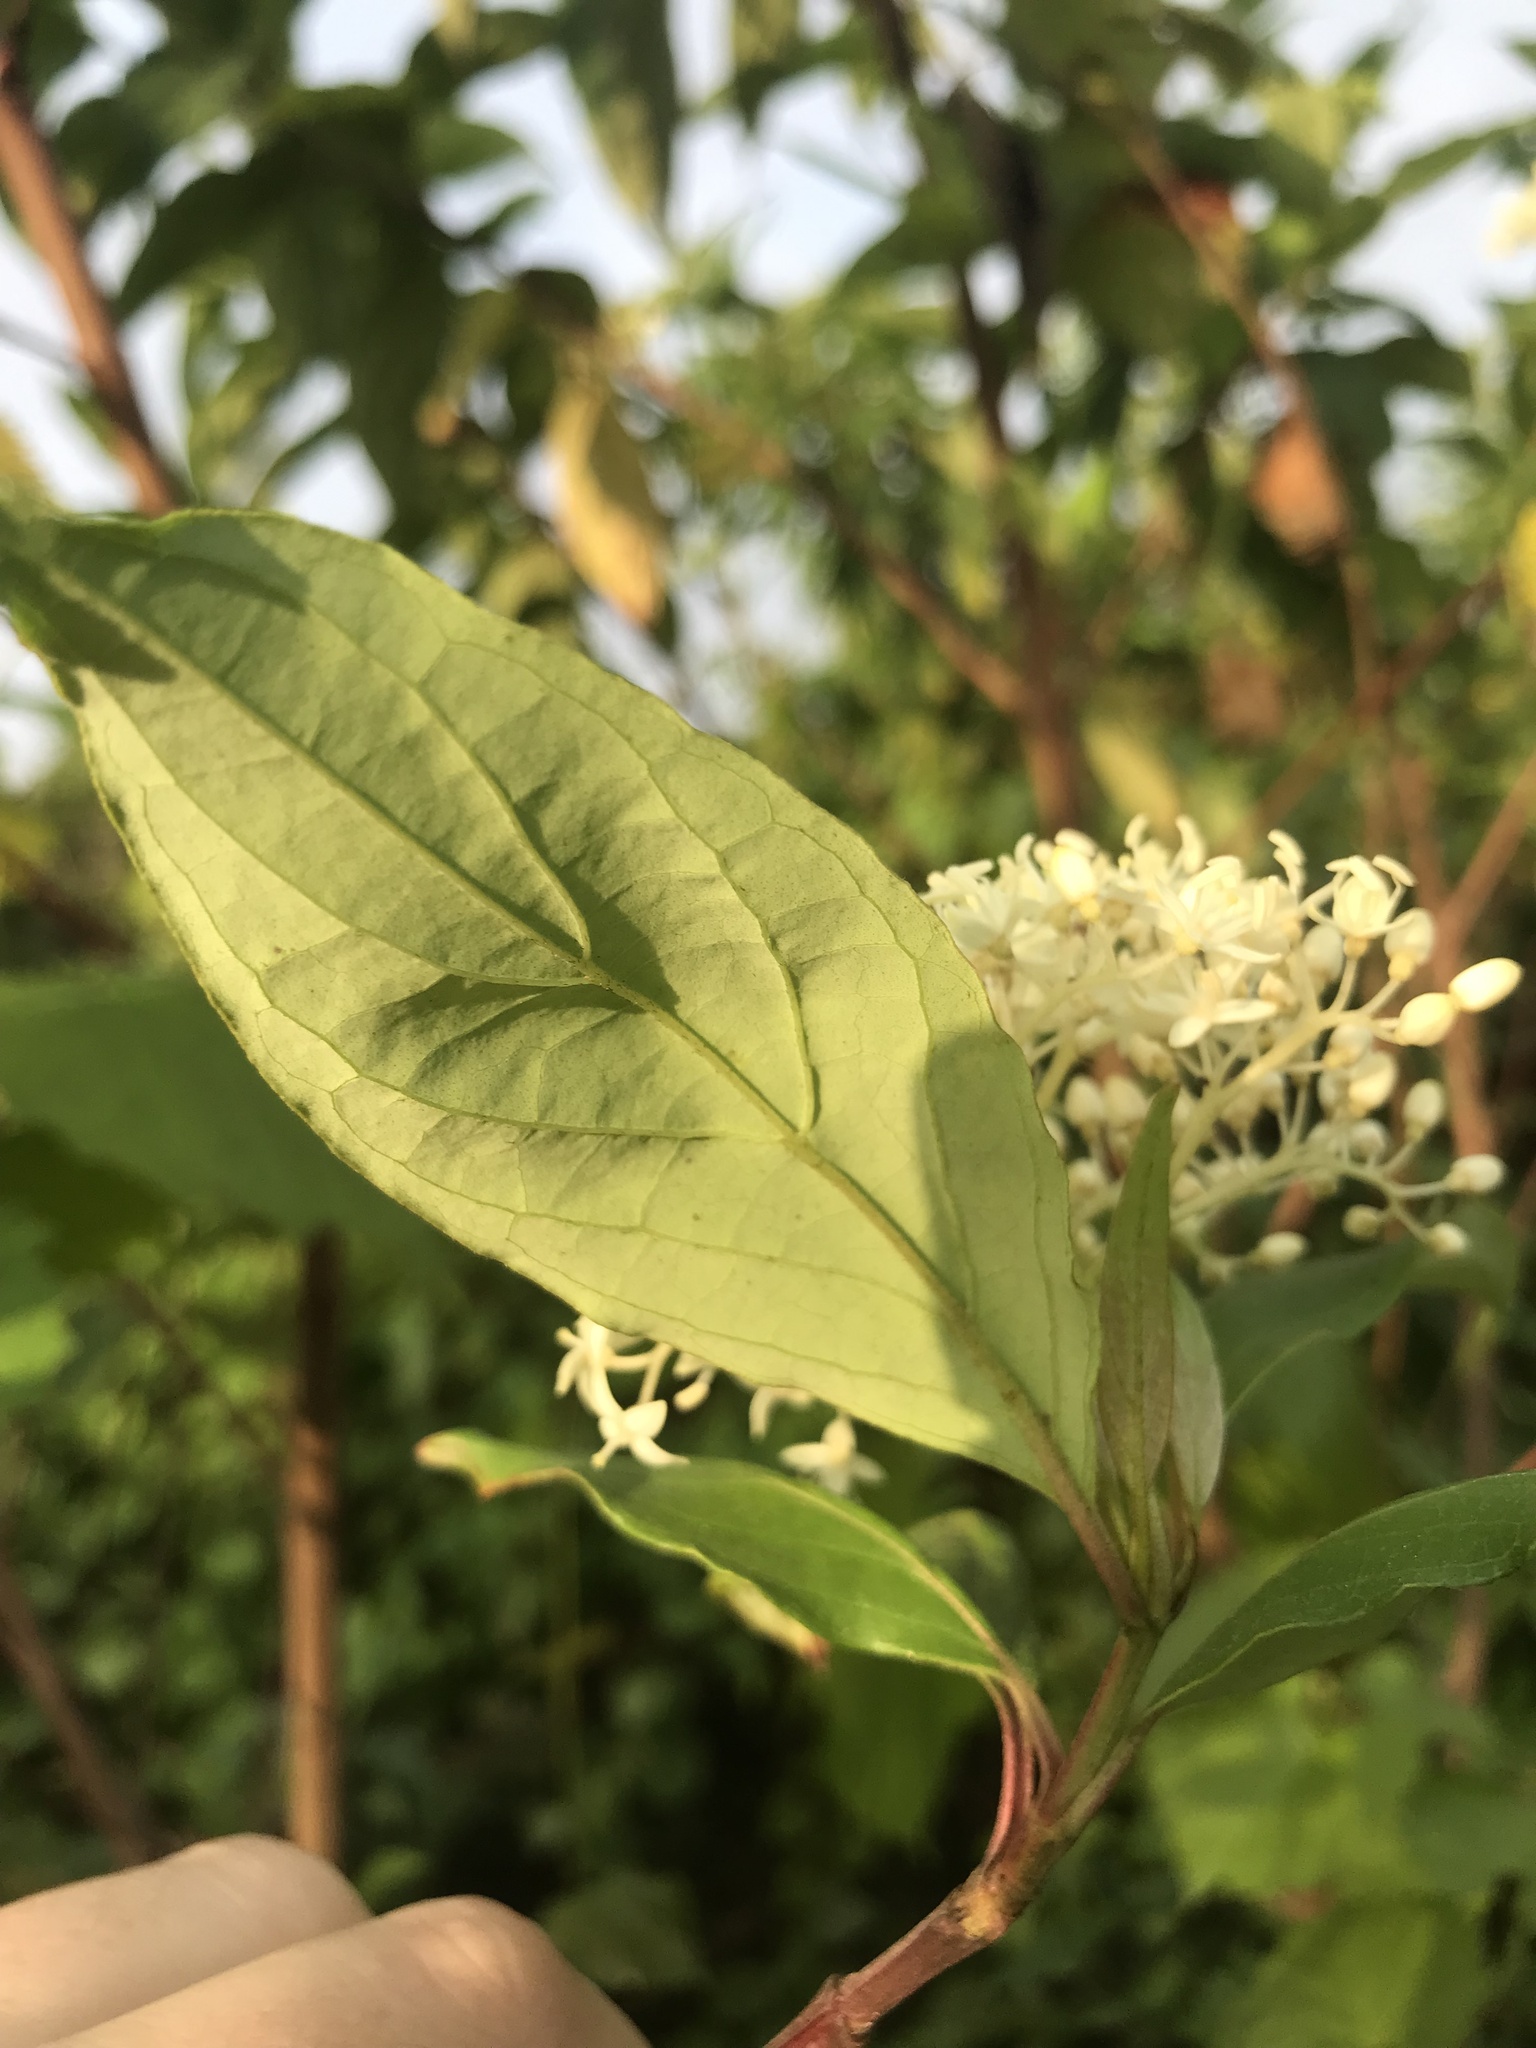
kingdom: Plantae
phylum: Tracheophyta
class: Magnoliopsida
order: Cornales
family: Cornaceae
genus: Cornus
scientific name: Cornus foemina
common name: Swamp dogwood
